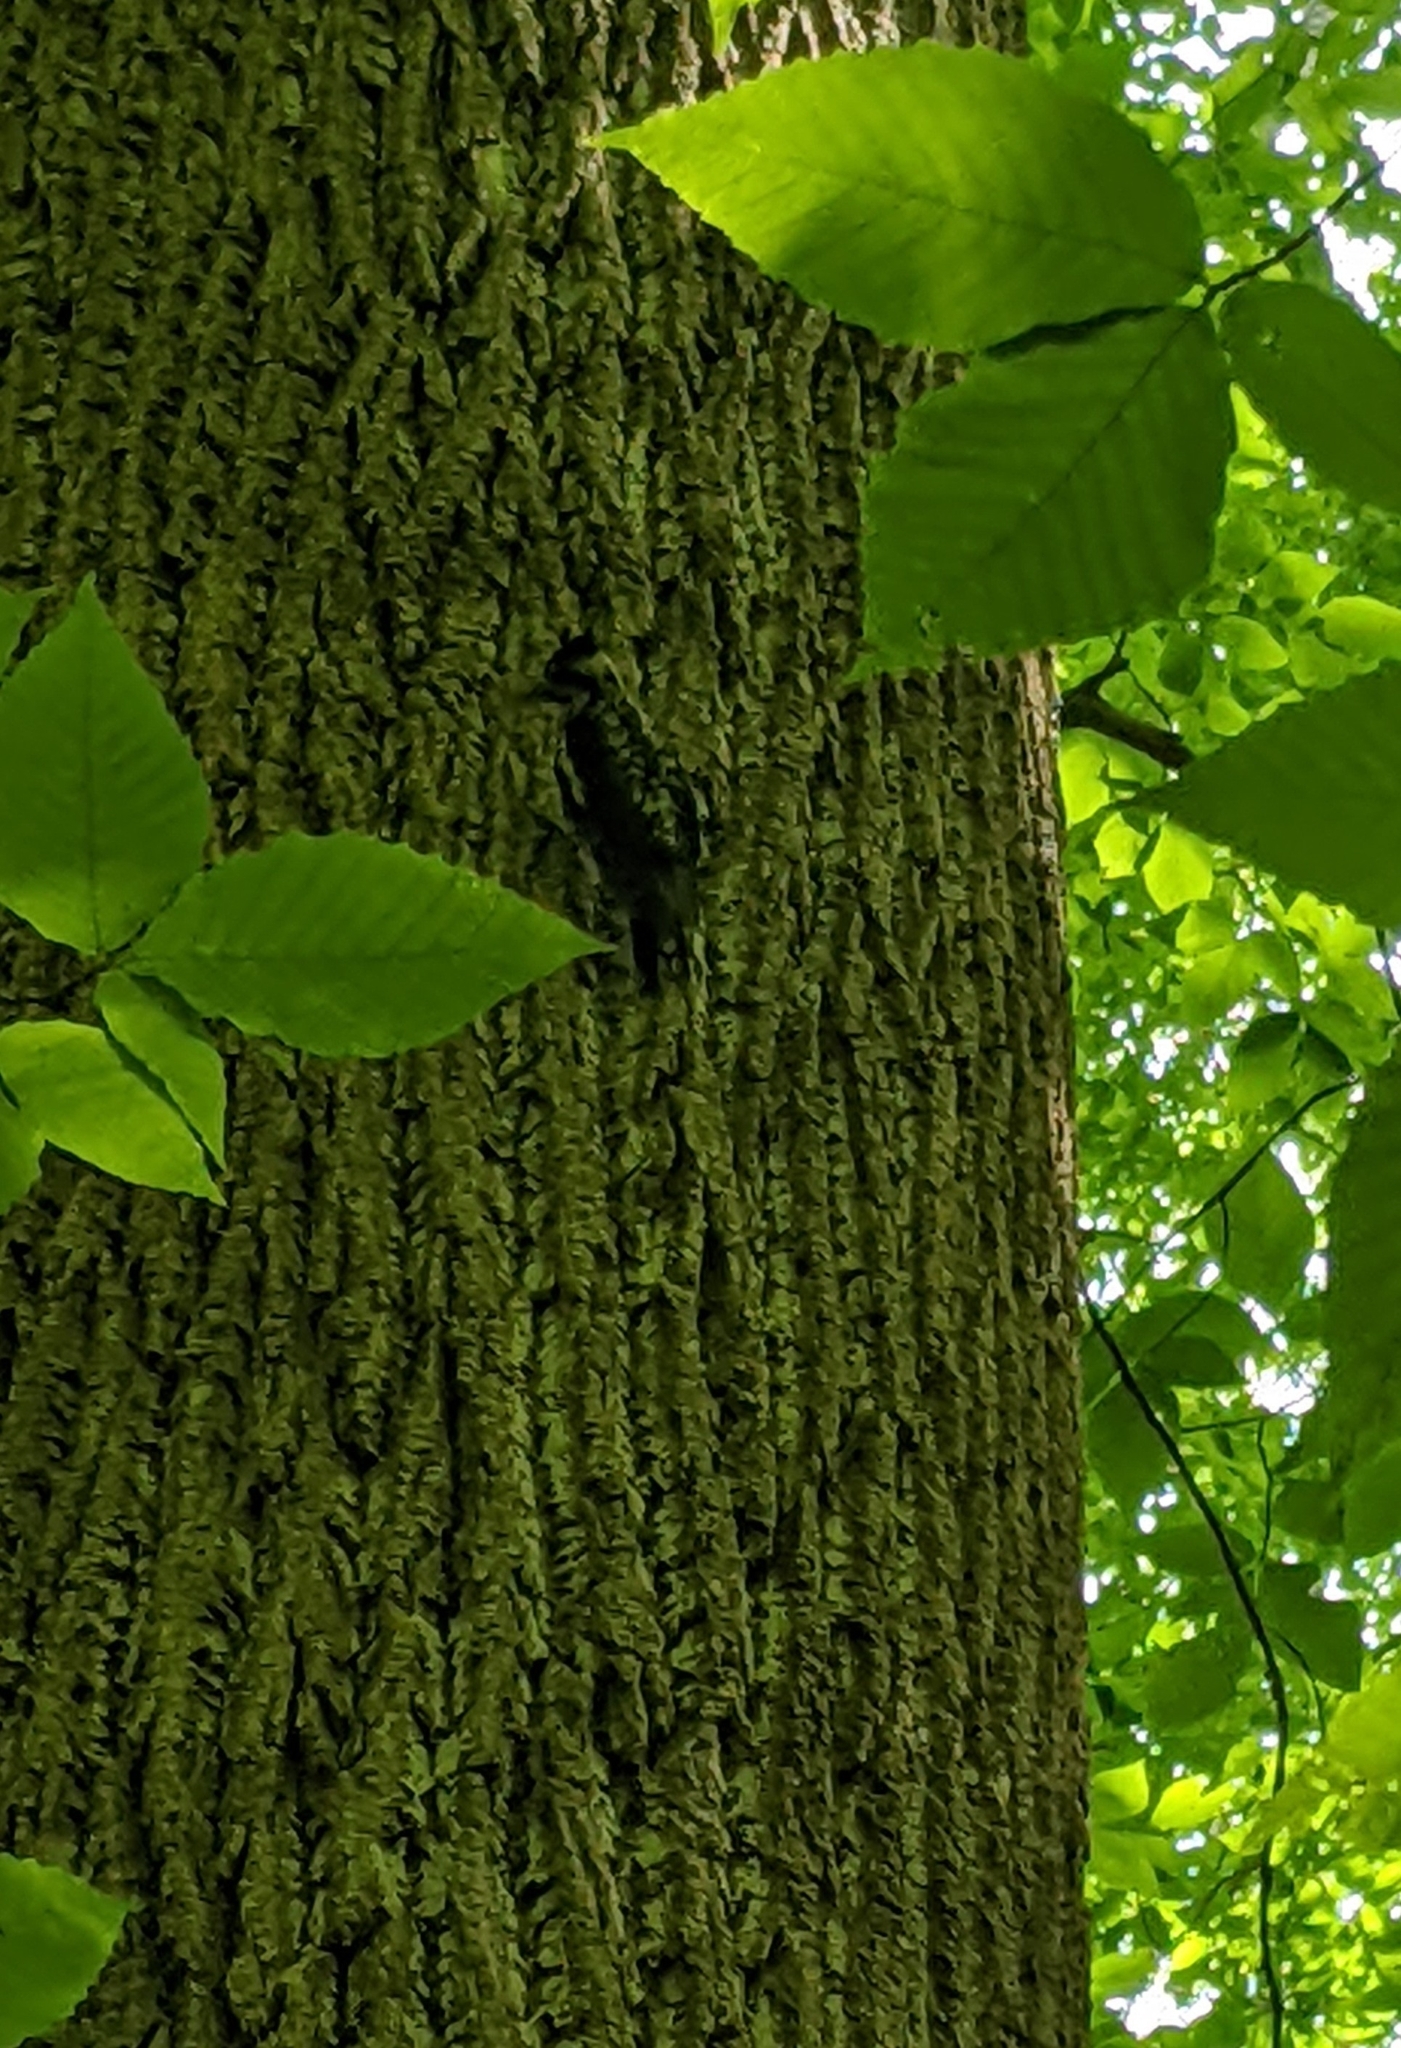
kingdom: Animalia
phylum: Chordata
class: Aves
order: Piciformes
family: Picidae
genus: Sphyrapicus
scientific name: Sphyrapicus varius
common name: Yellow-bellied sapsucker
